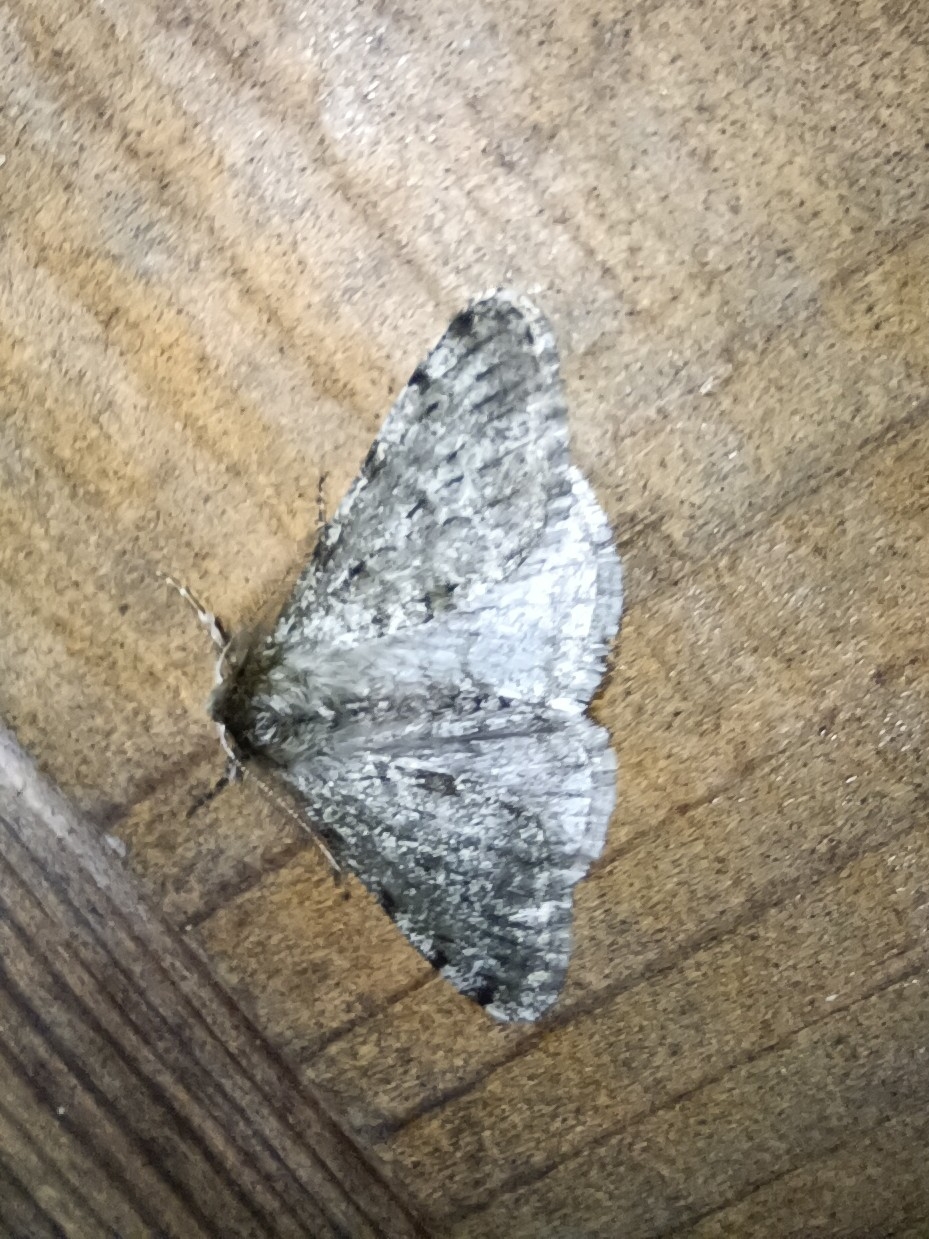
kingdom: Animalia
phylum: Arthropoda
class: Insecta
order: Lepidoptera
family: Geometridae
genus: Phigalia
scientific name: Phigalia pilosaria
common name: Pale brindled beauty
